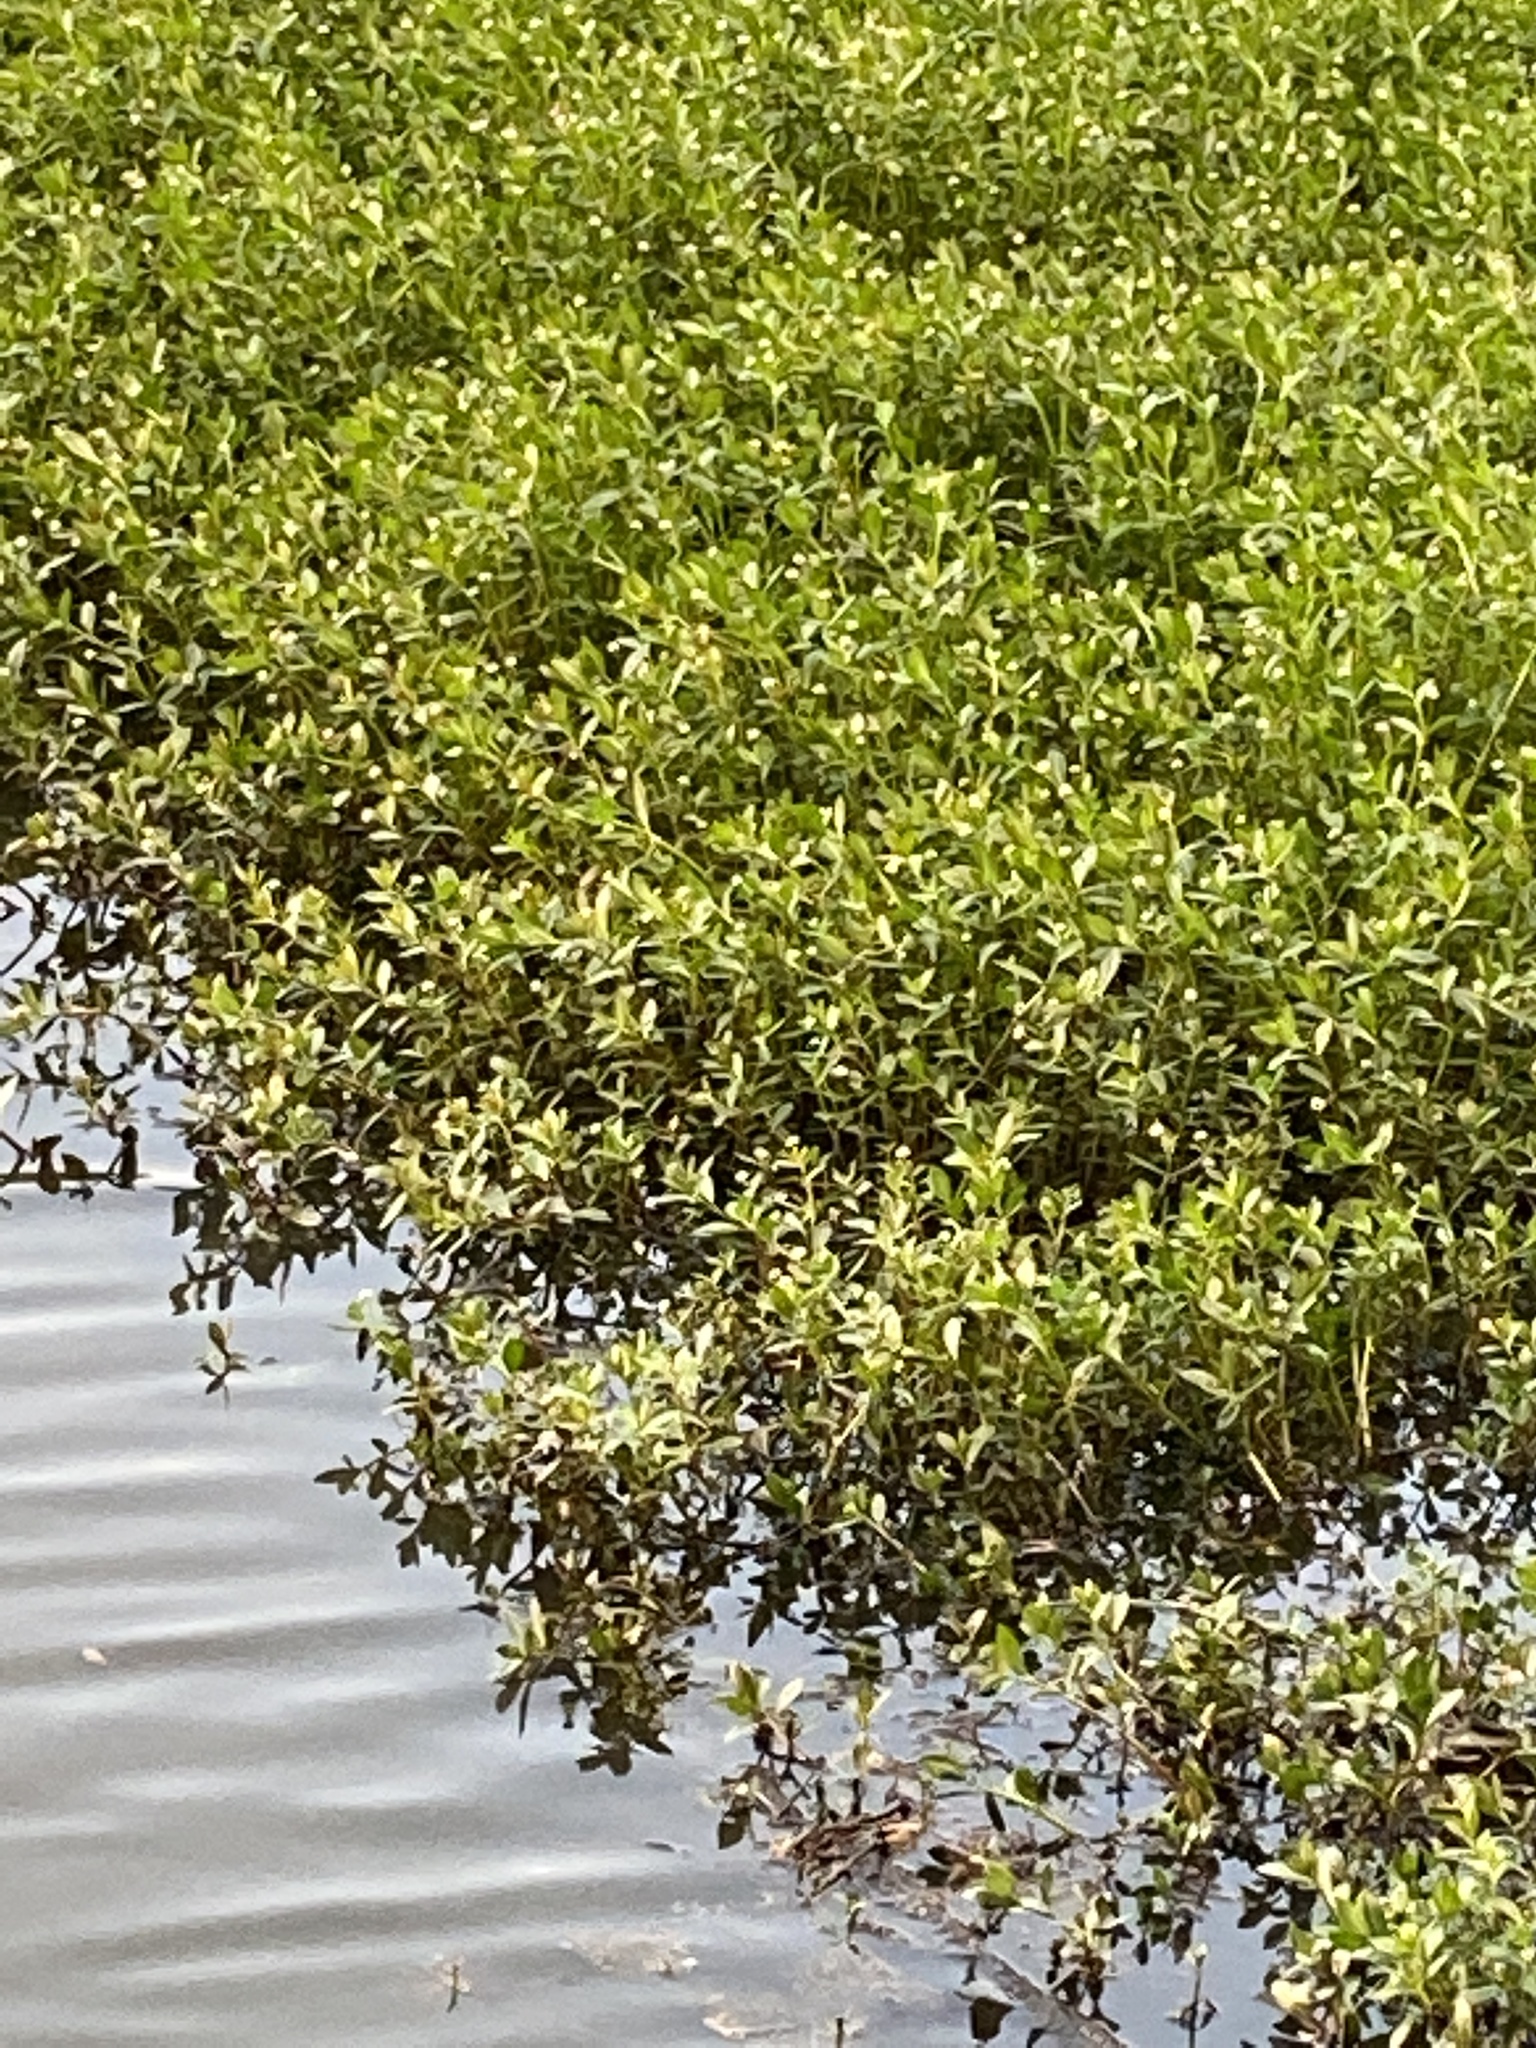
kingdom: Plantae
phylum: Tracheophyta
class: Magnoliopsida
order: Caryophyllales
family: Amaranthaceae
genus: Alternanthera
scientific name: Alternanthera philoxeroides
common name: Alligatorweed
